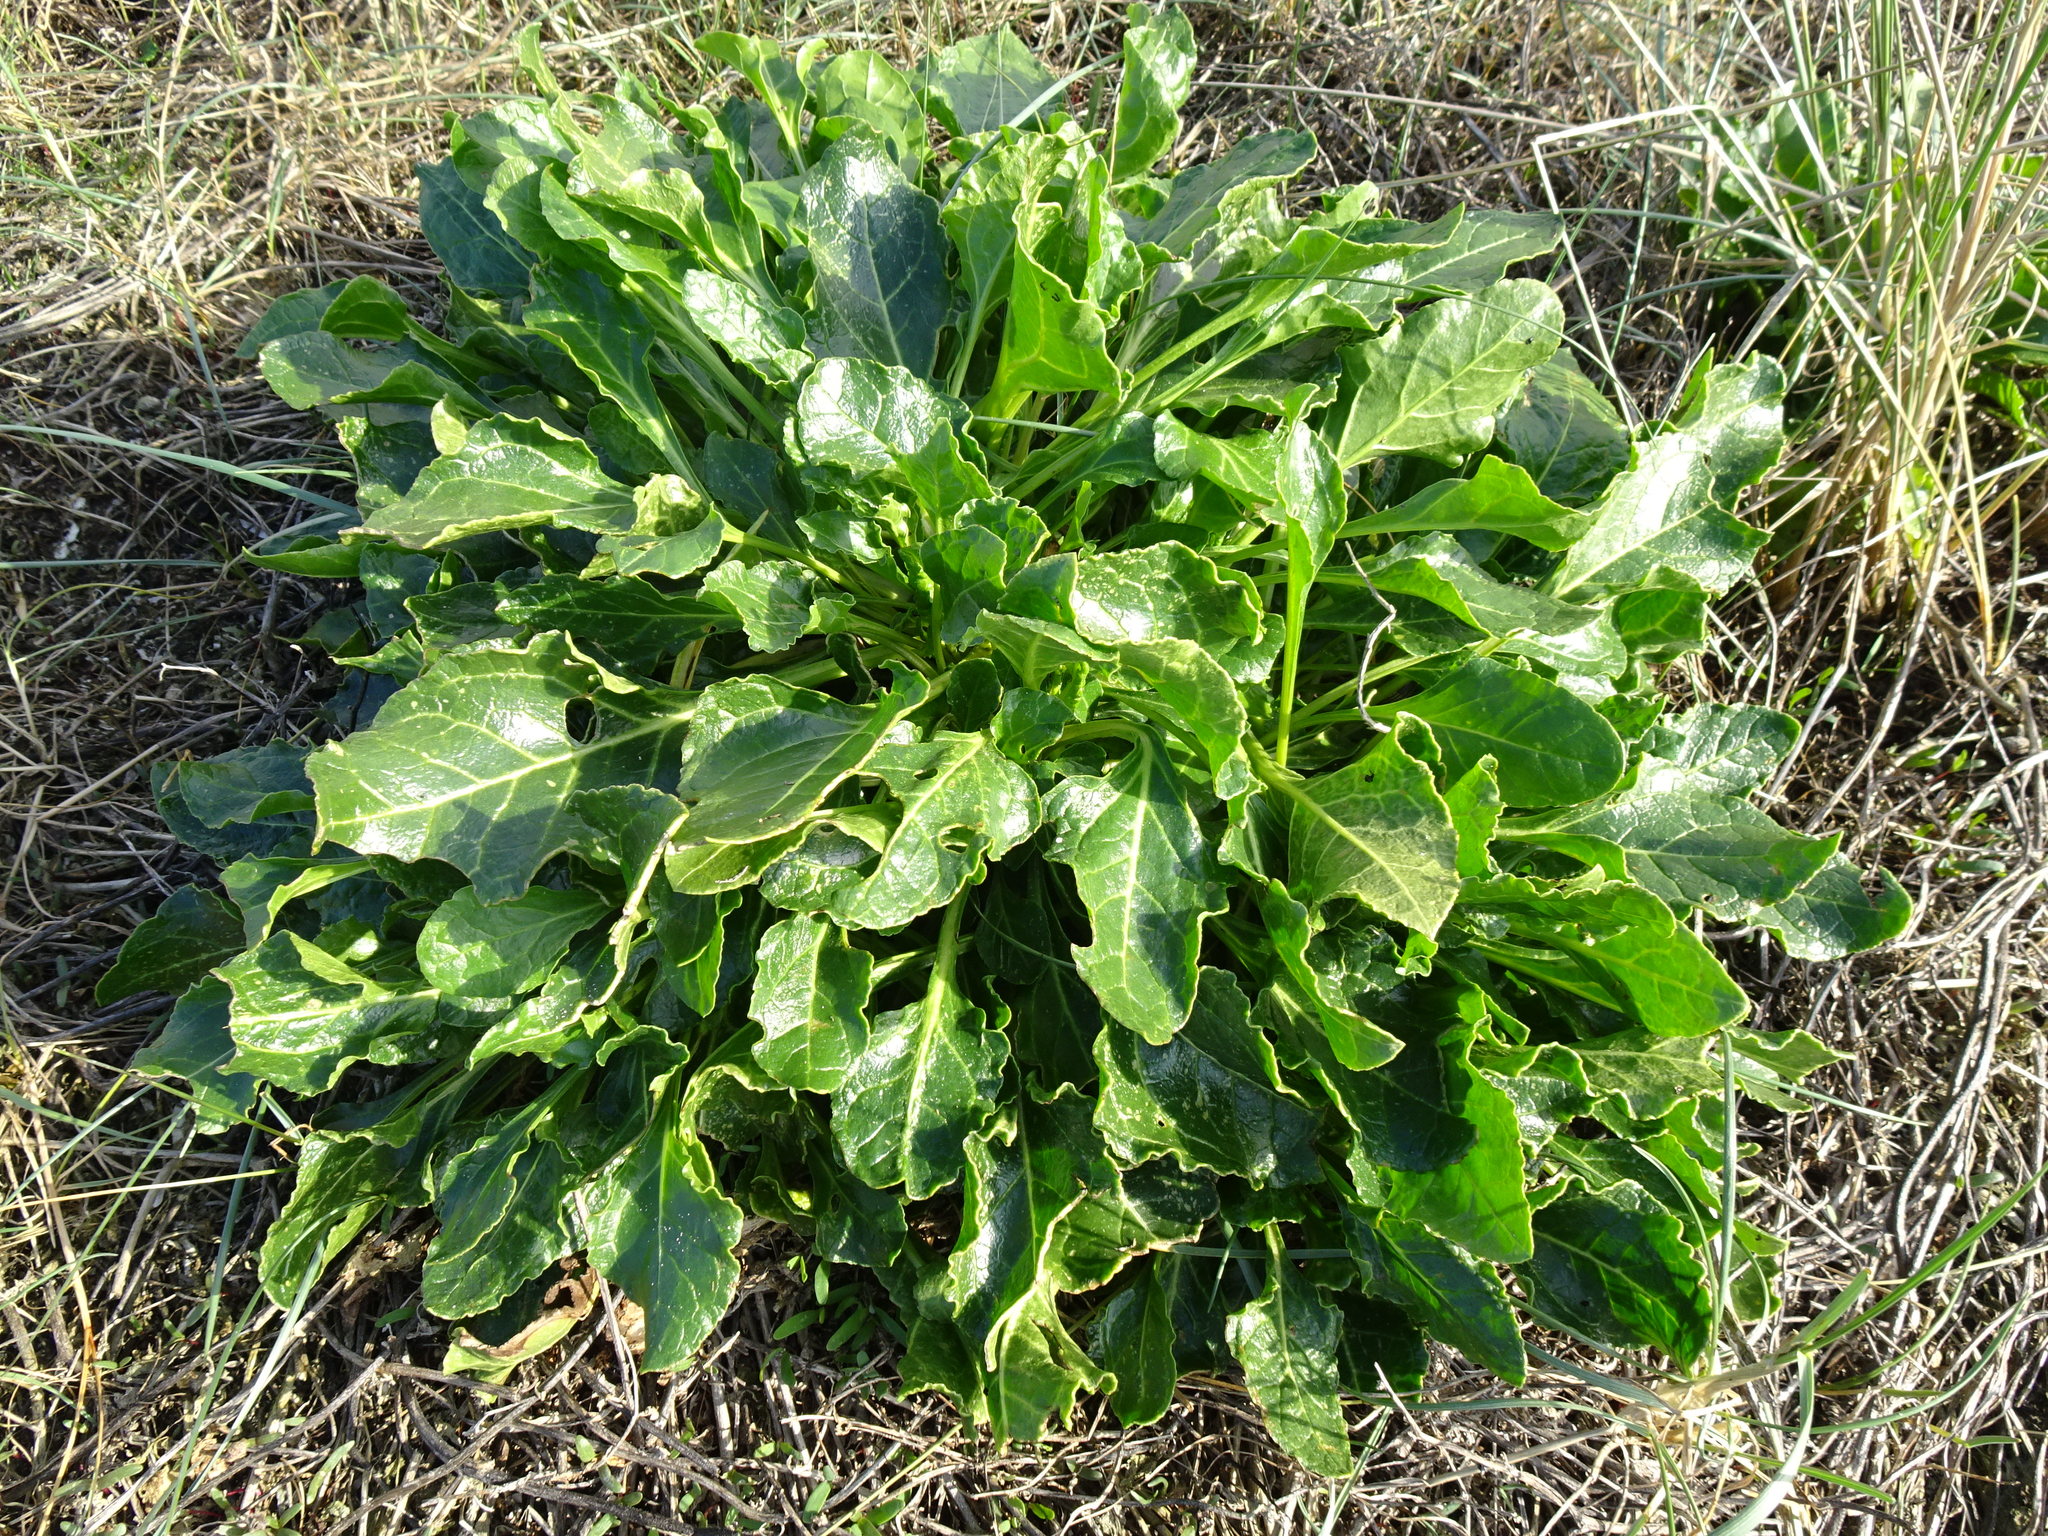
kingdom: Plantae
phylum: Tracheophyta
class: Magnoliopsida
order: Caryophyllales
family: Amaranthaceae
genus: Beta
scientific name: Beta vulgaris
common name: Beet
